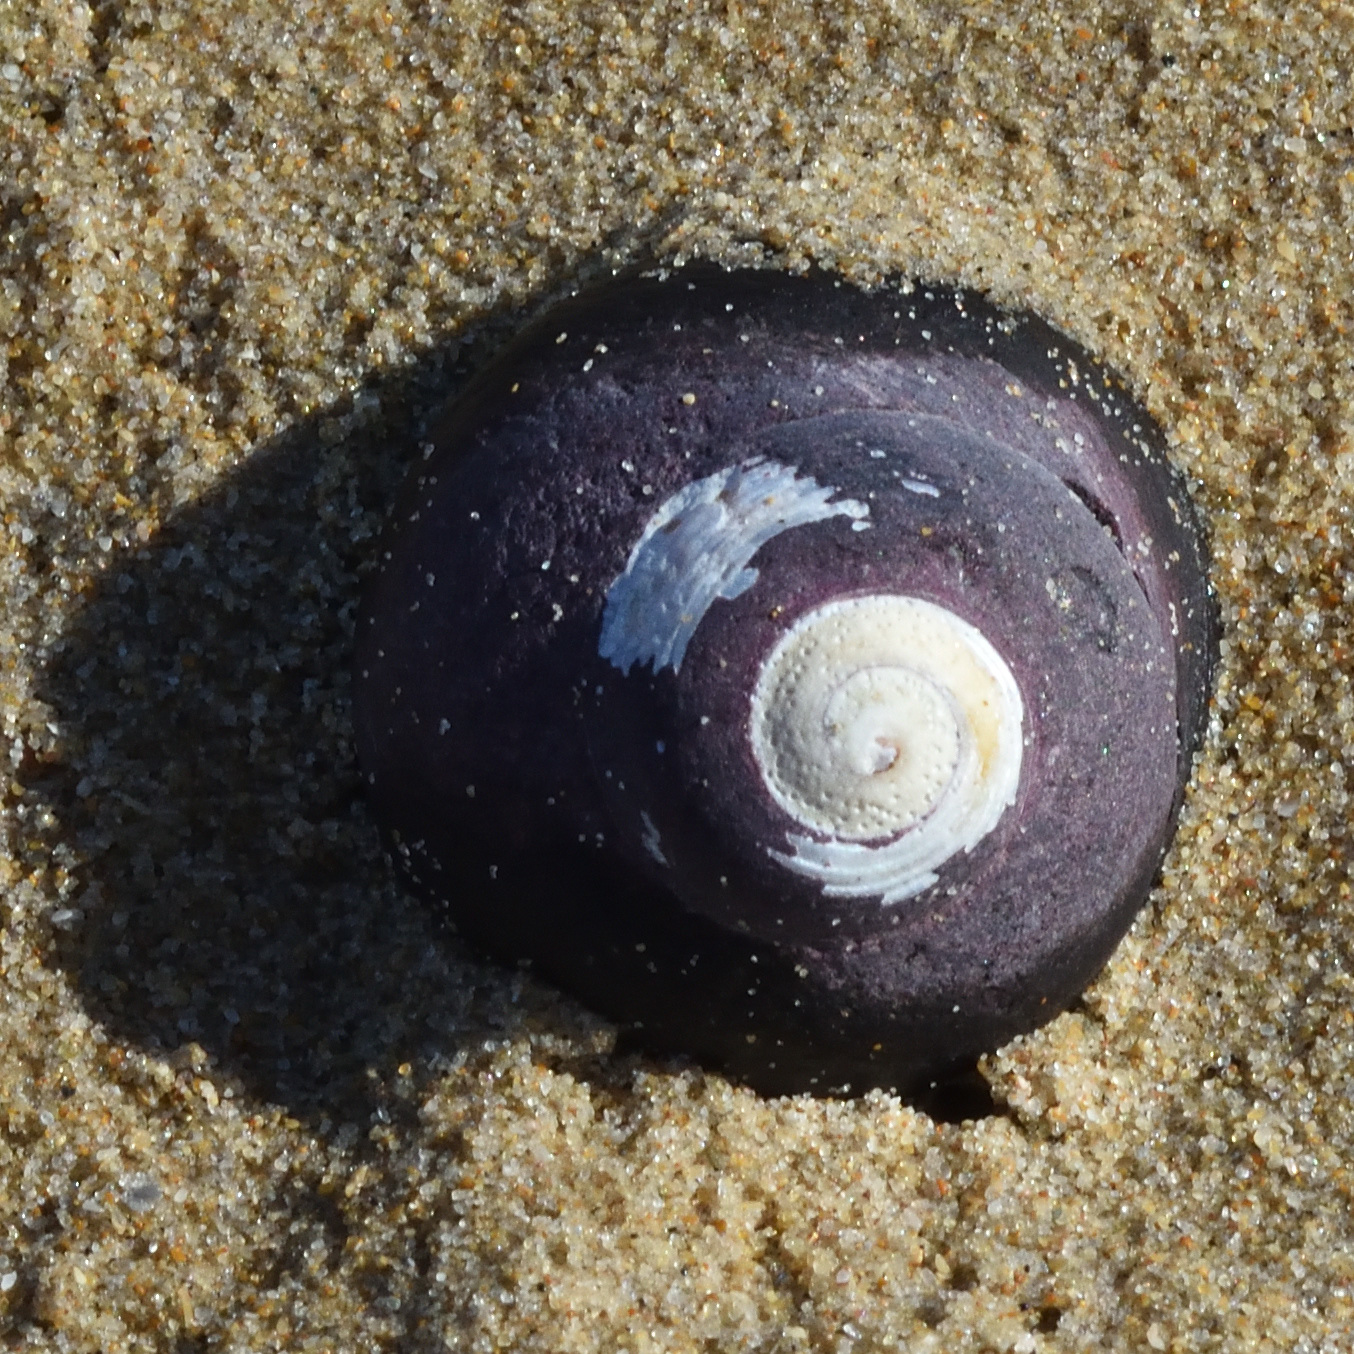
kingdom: Animalia
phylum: Mollusca
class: Gastropoda
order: Trochida
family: Trochidae
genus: Oxystele
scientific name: Oxystele sinensis
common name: Pink-lipped topshell
